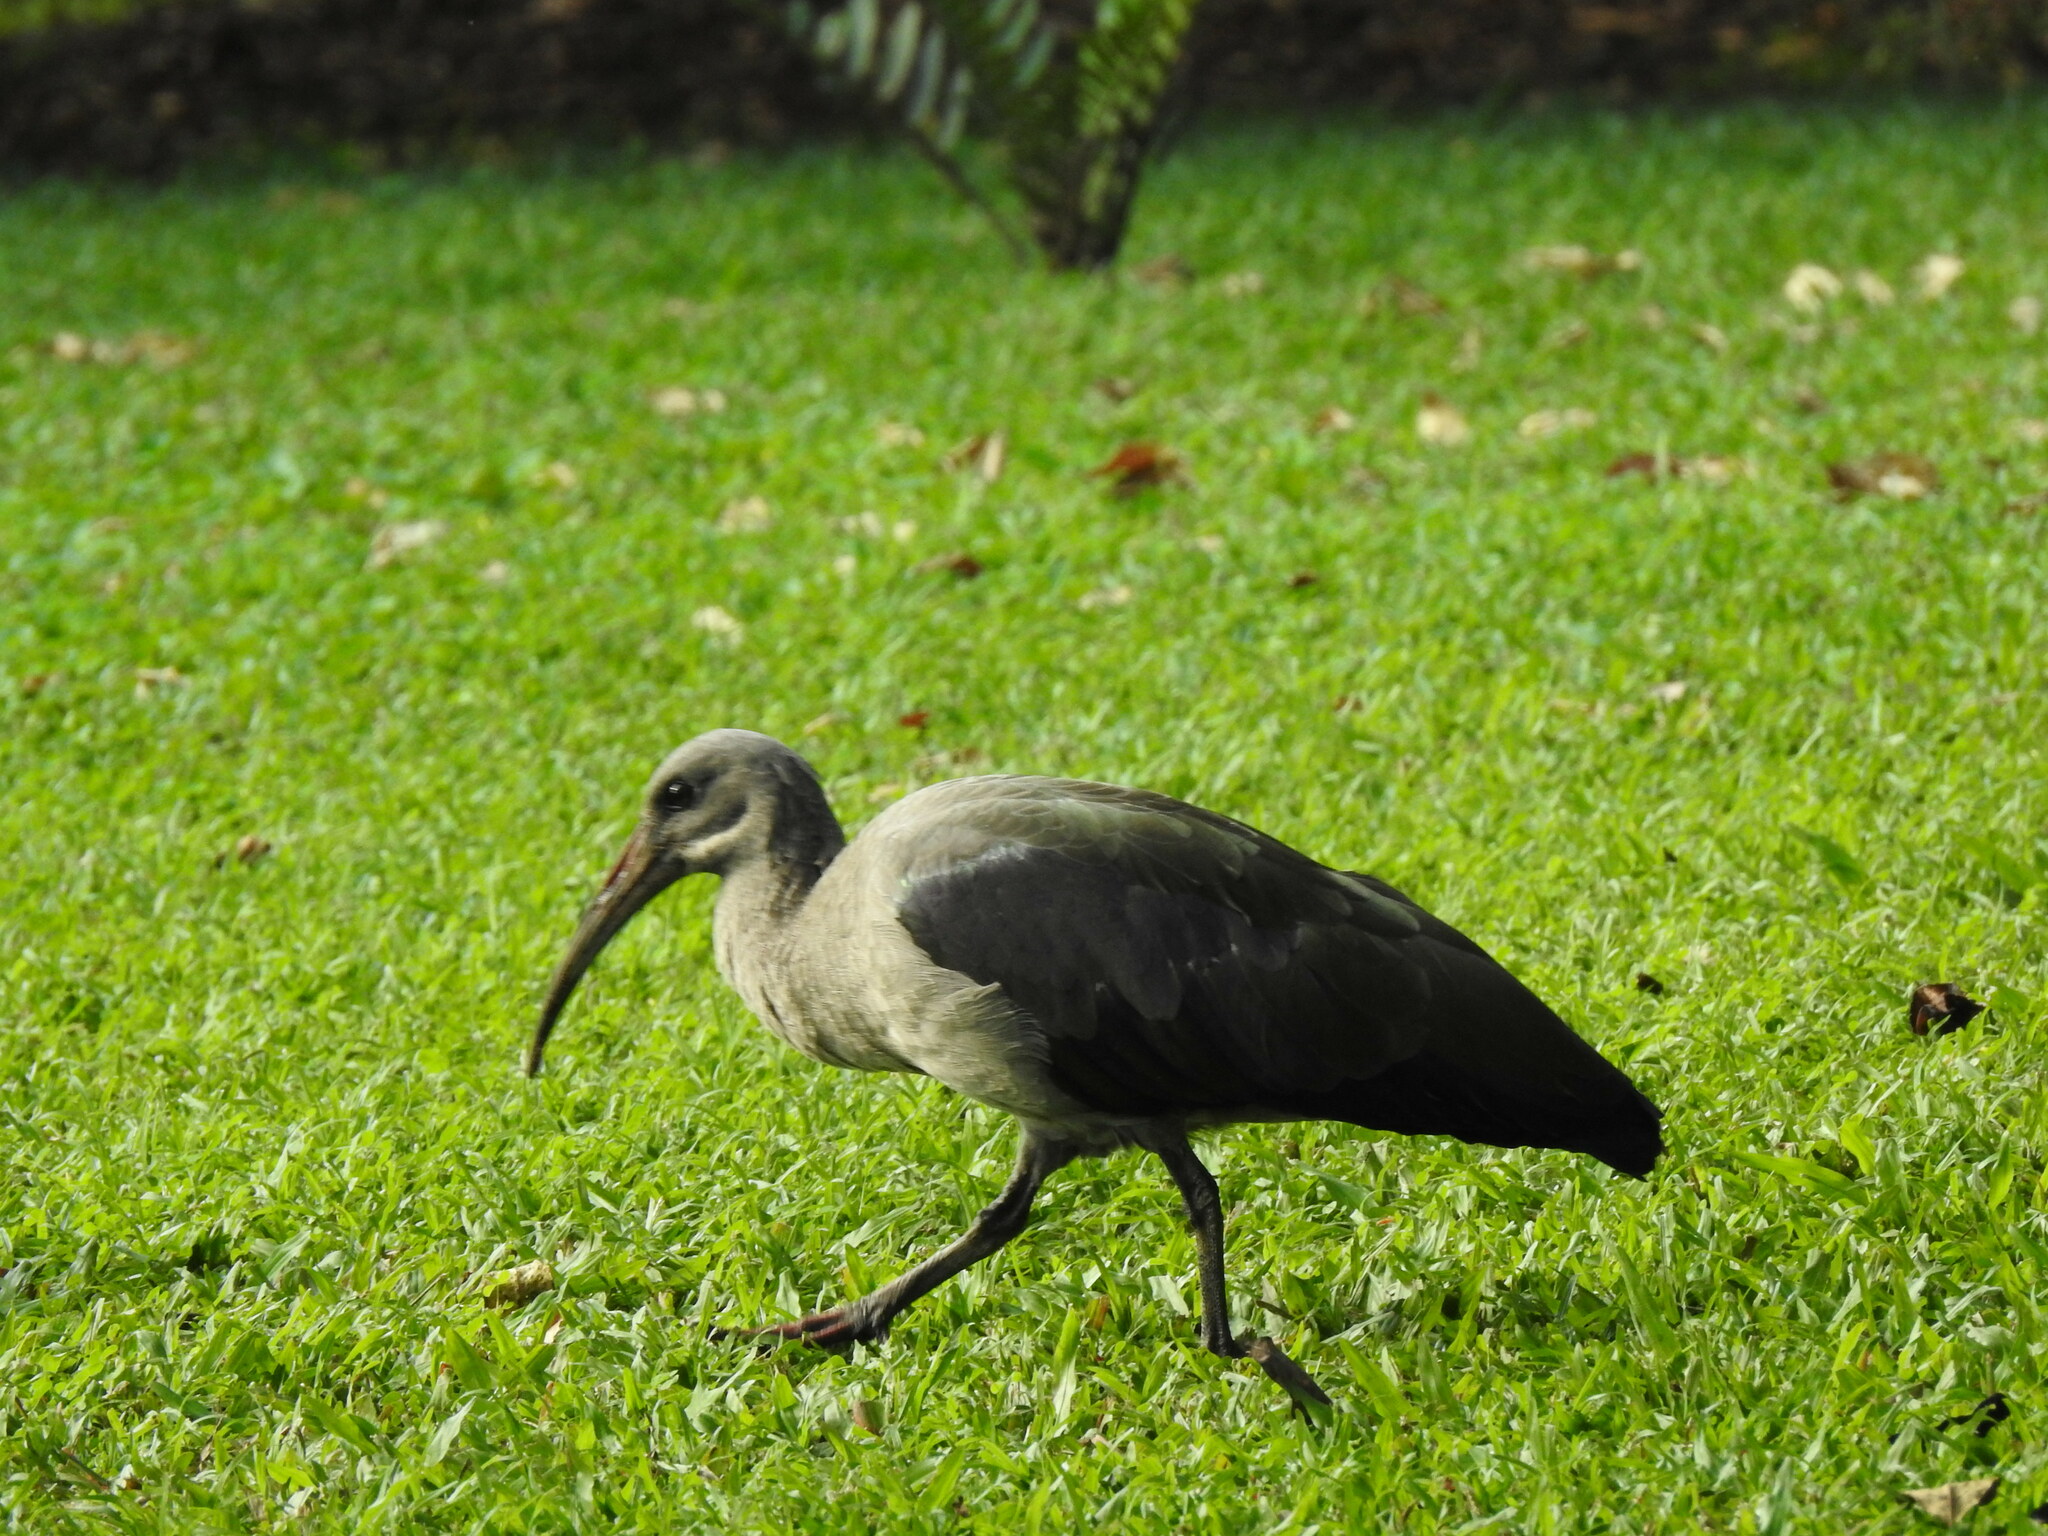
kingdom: Animalia
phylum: Chordata
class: Aves
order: Pelecaniformes
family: Threskiornithidae
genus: Bostrychia
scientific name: Bostrychia hagedash
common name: Hadada ibis
